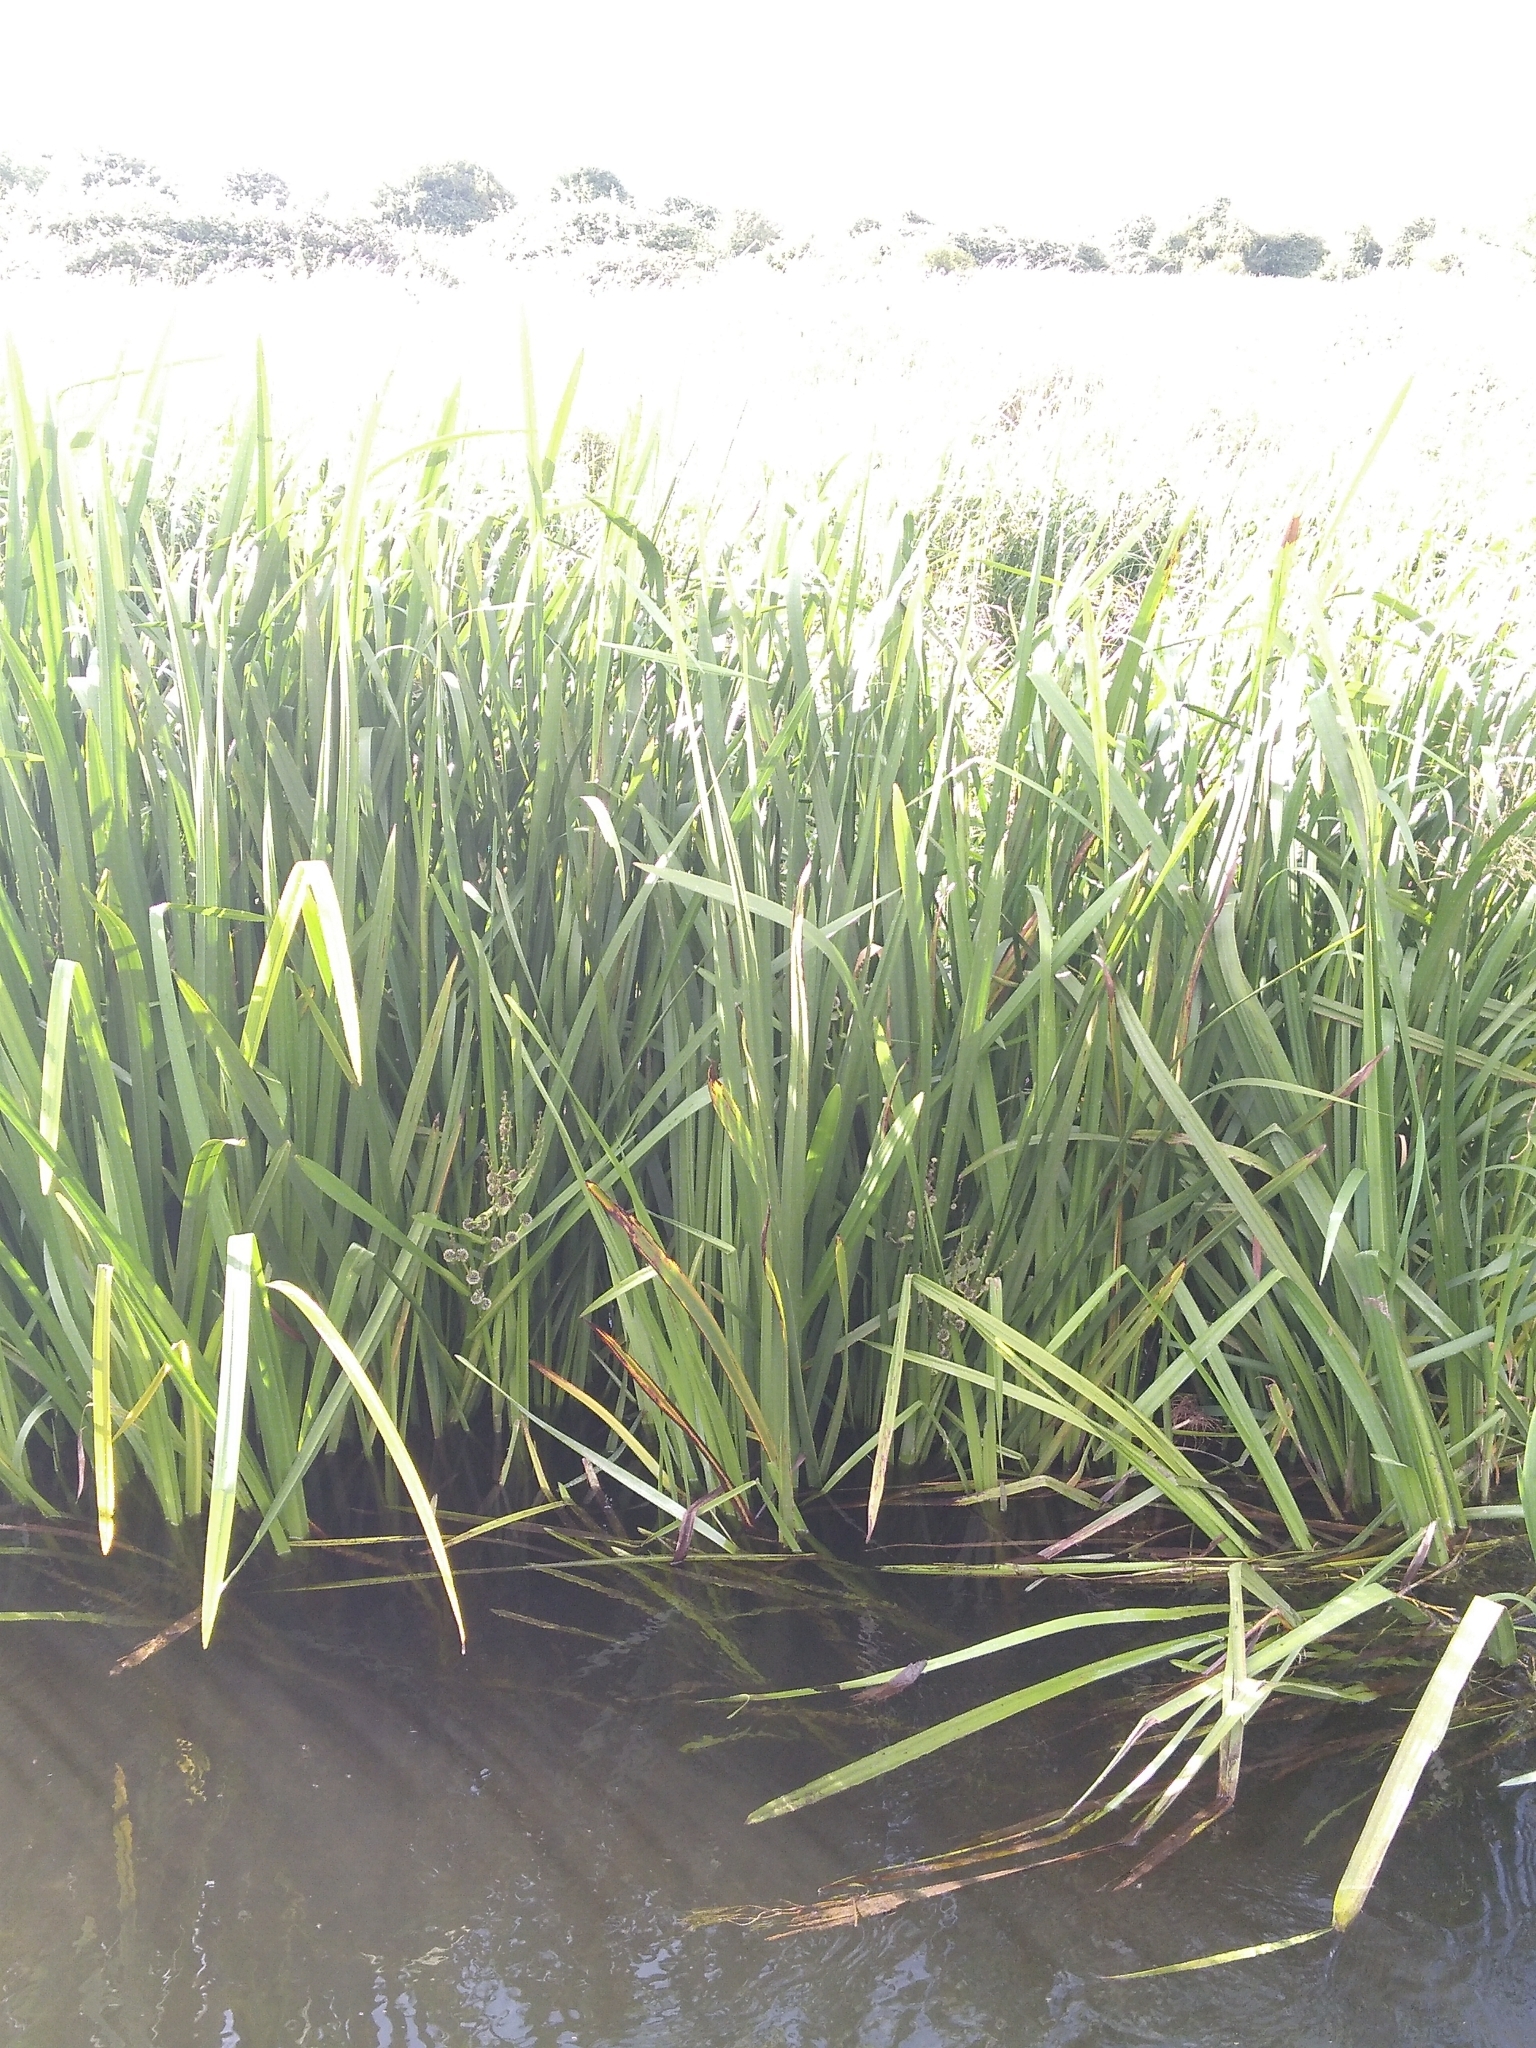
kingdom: Plantae
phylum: Tracheophyta
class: Liliopsida
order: Poales
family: Typhaceae
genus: Sparganium
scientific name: Sparganium erectum
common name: Branched bur-reed
